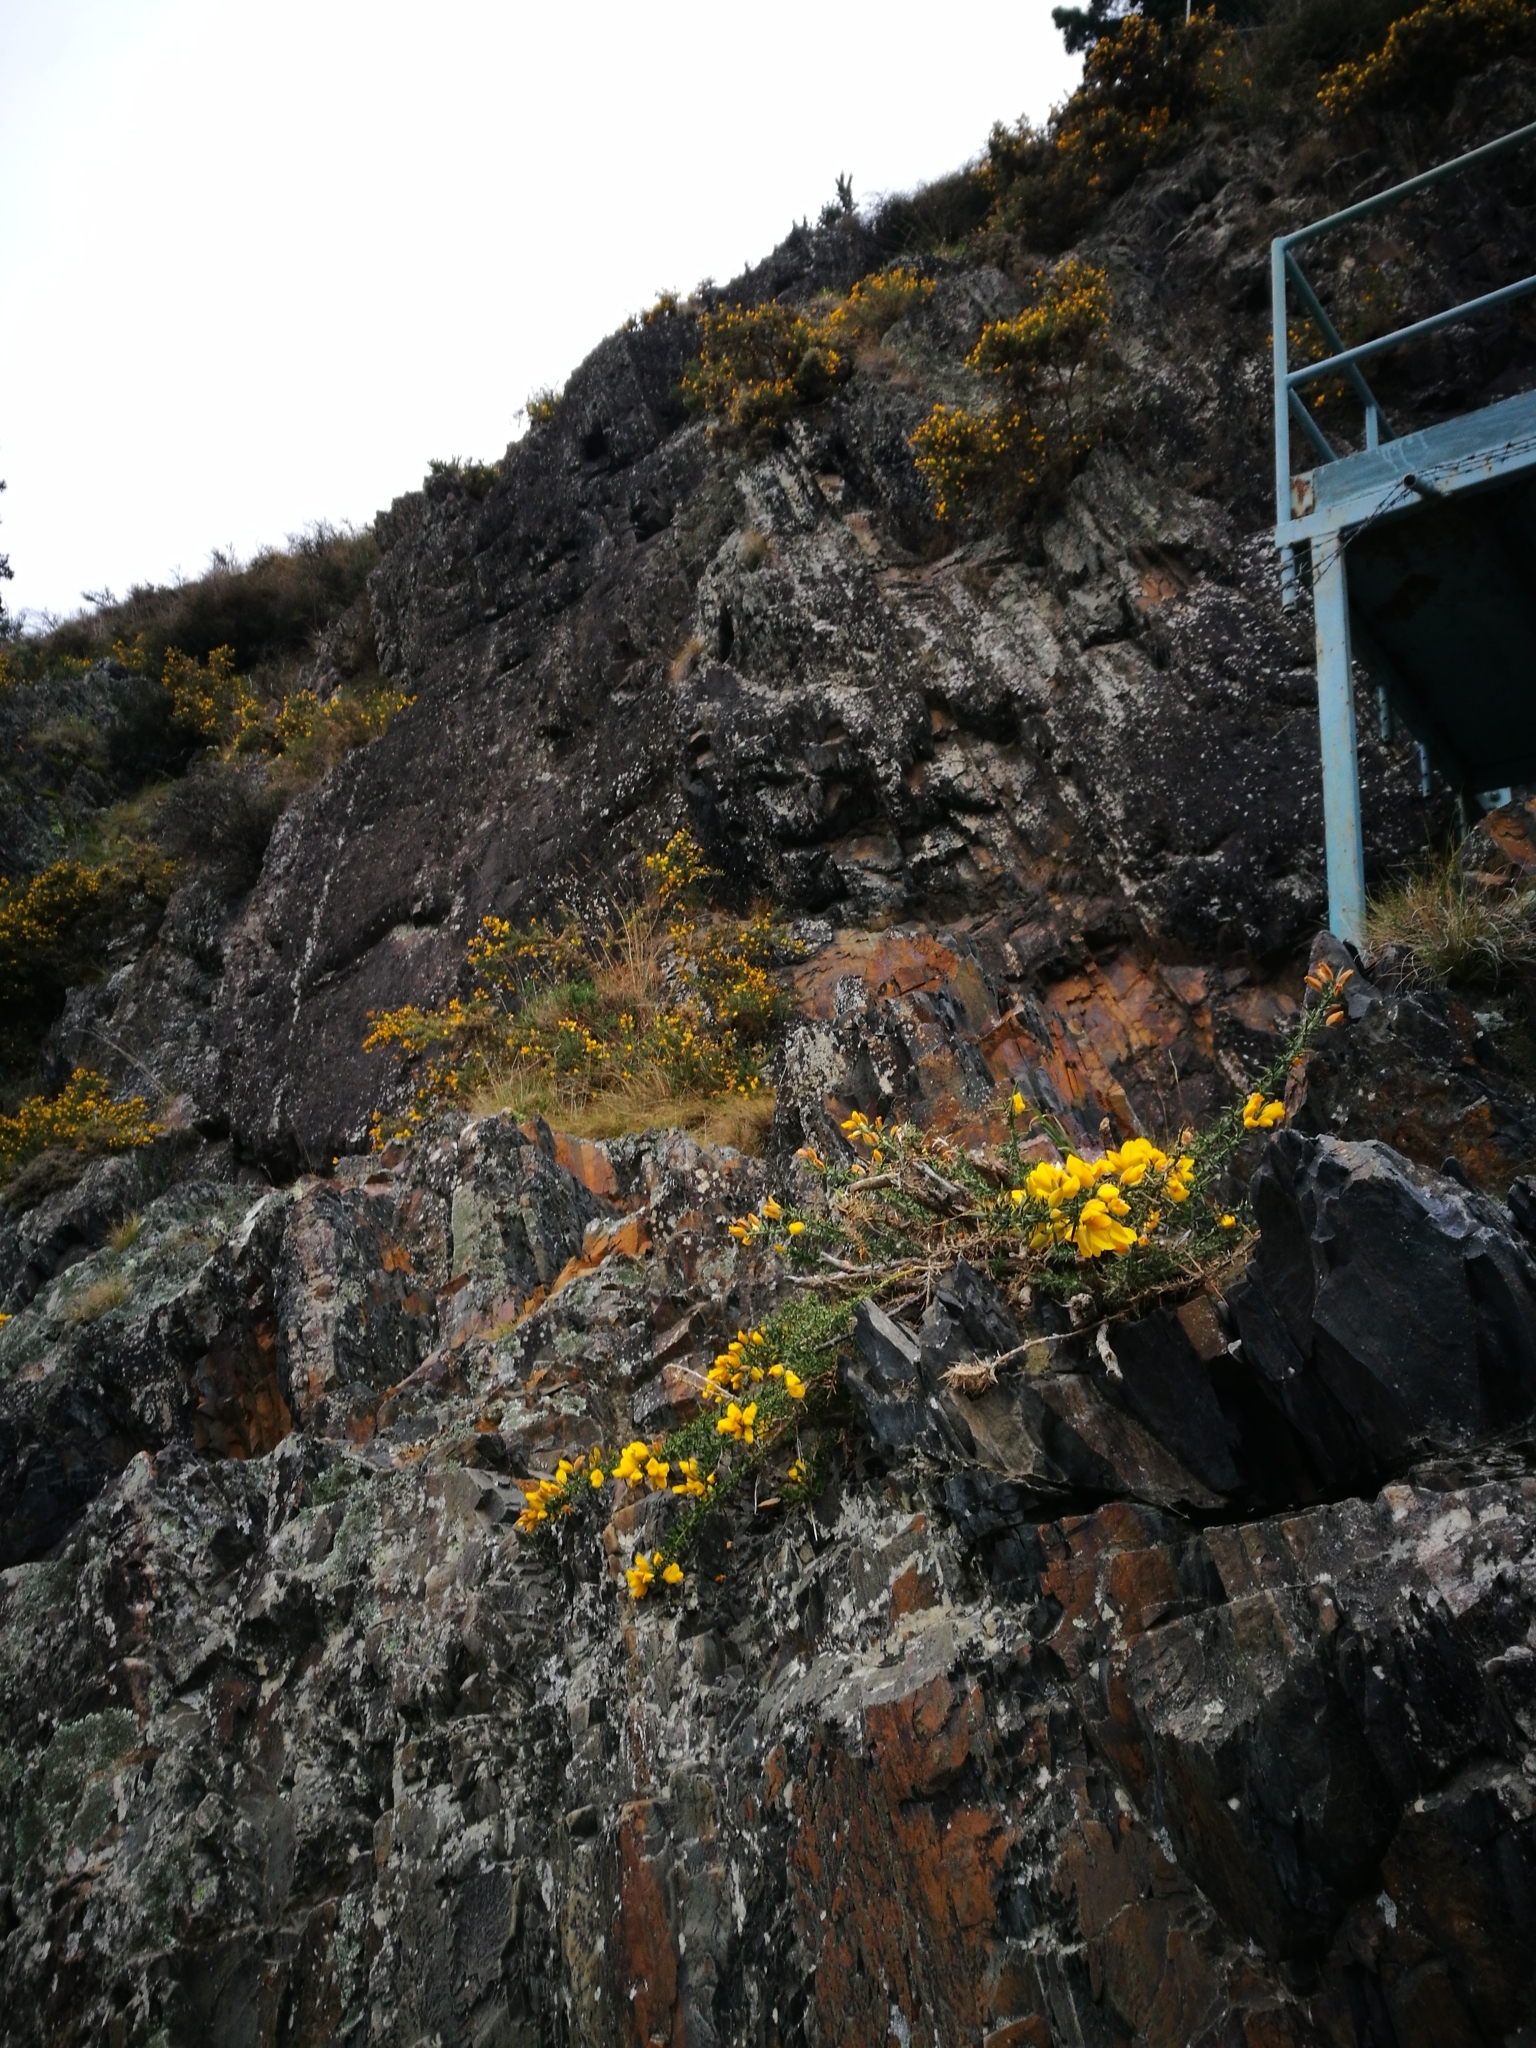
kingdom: Plantae
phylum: Tracheophyta
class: Magnoliopsida
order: Fabales
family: Fabaceae
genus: Ulex
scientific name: Ulex europaeus
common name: Common gorse
